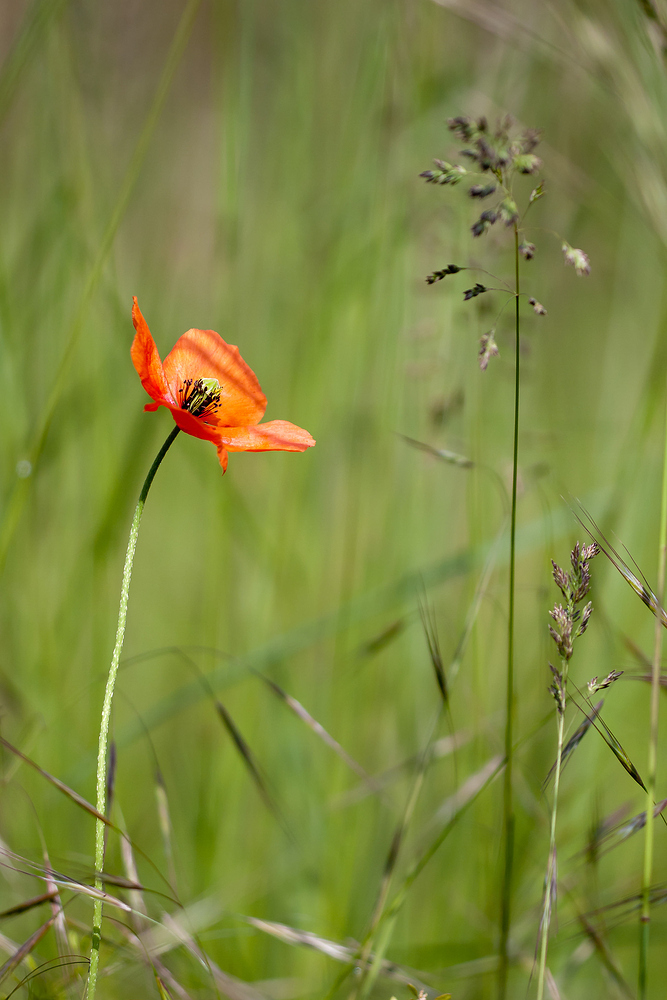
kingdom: Plantae
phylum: Tracheophyta
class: Magnoliopsida
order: Ranunculales
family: Papaveraceae
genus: Papaver
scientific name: Papaver
